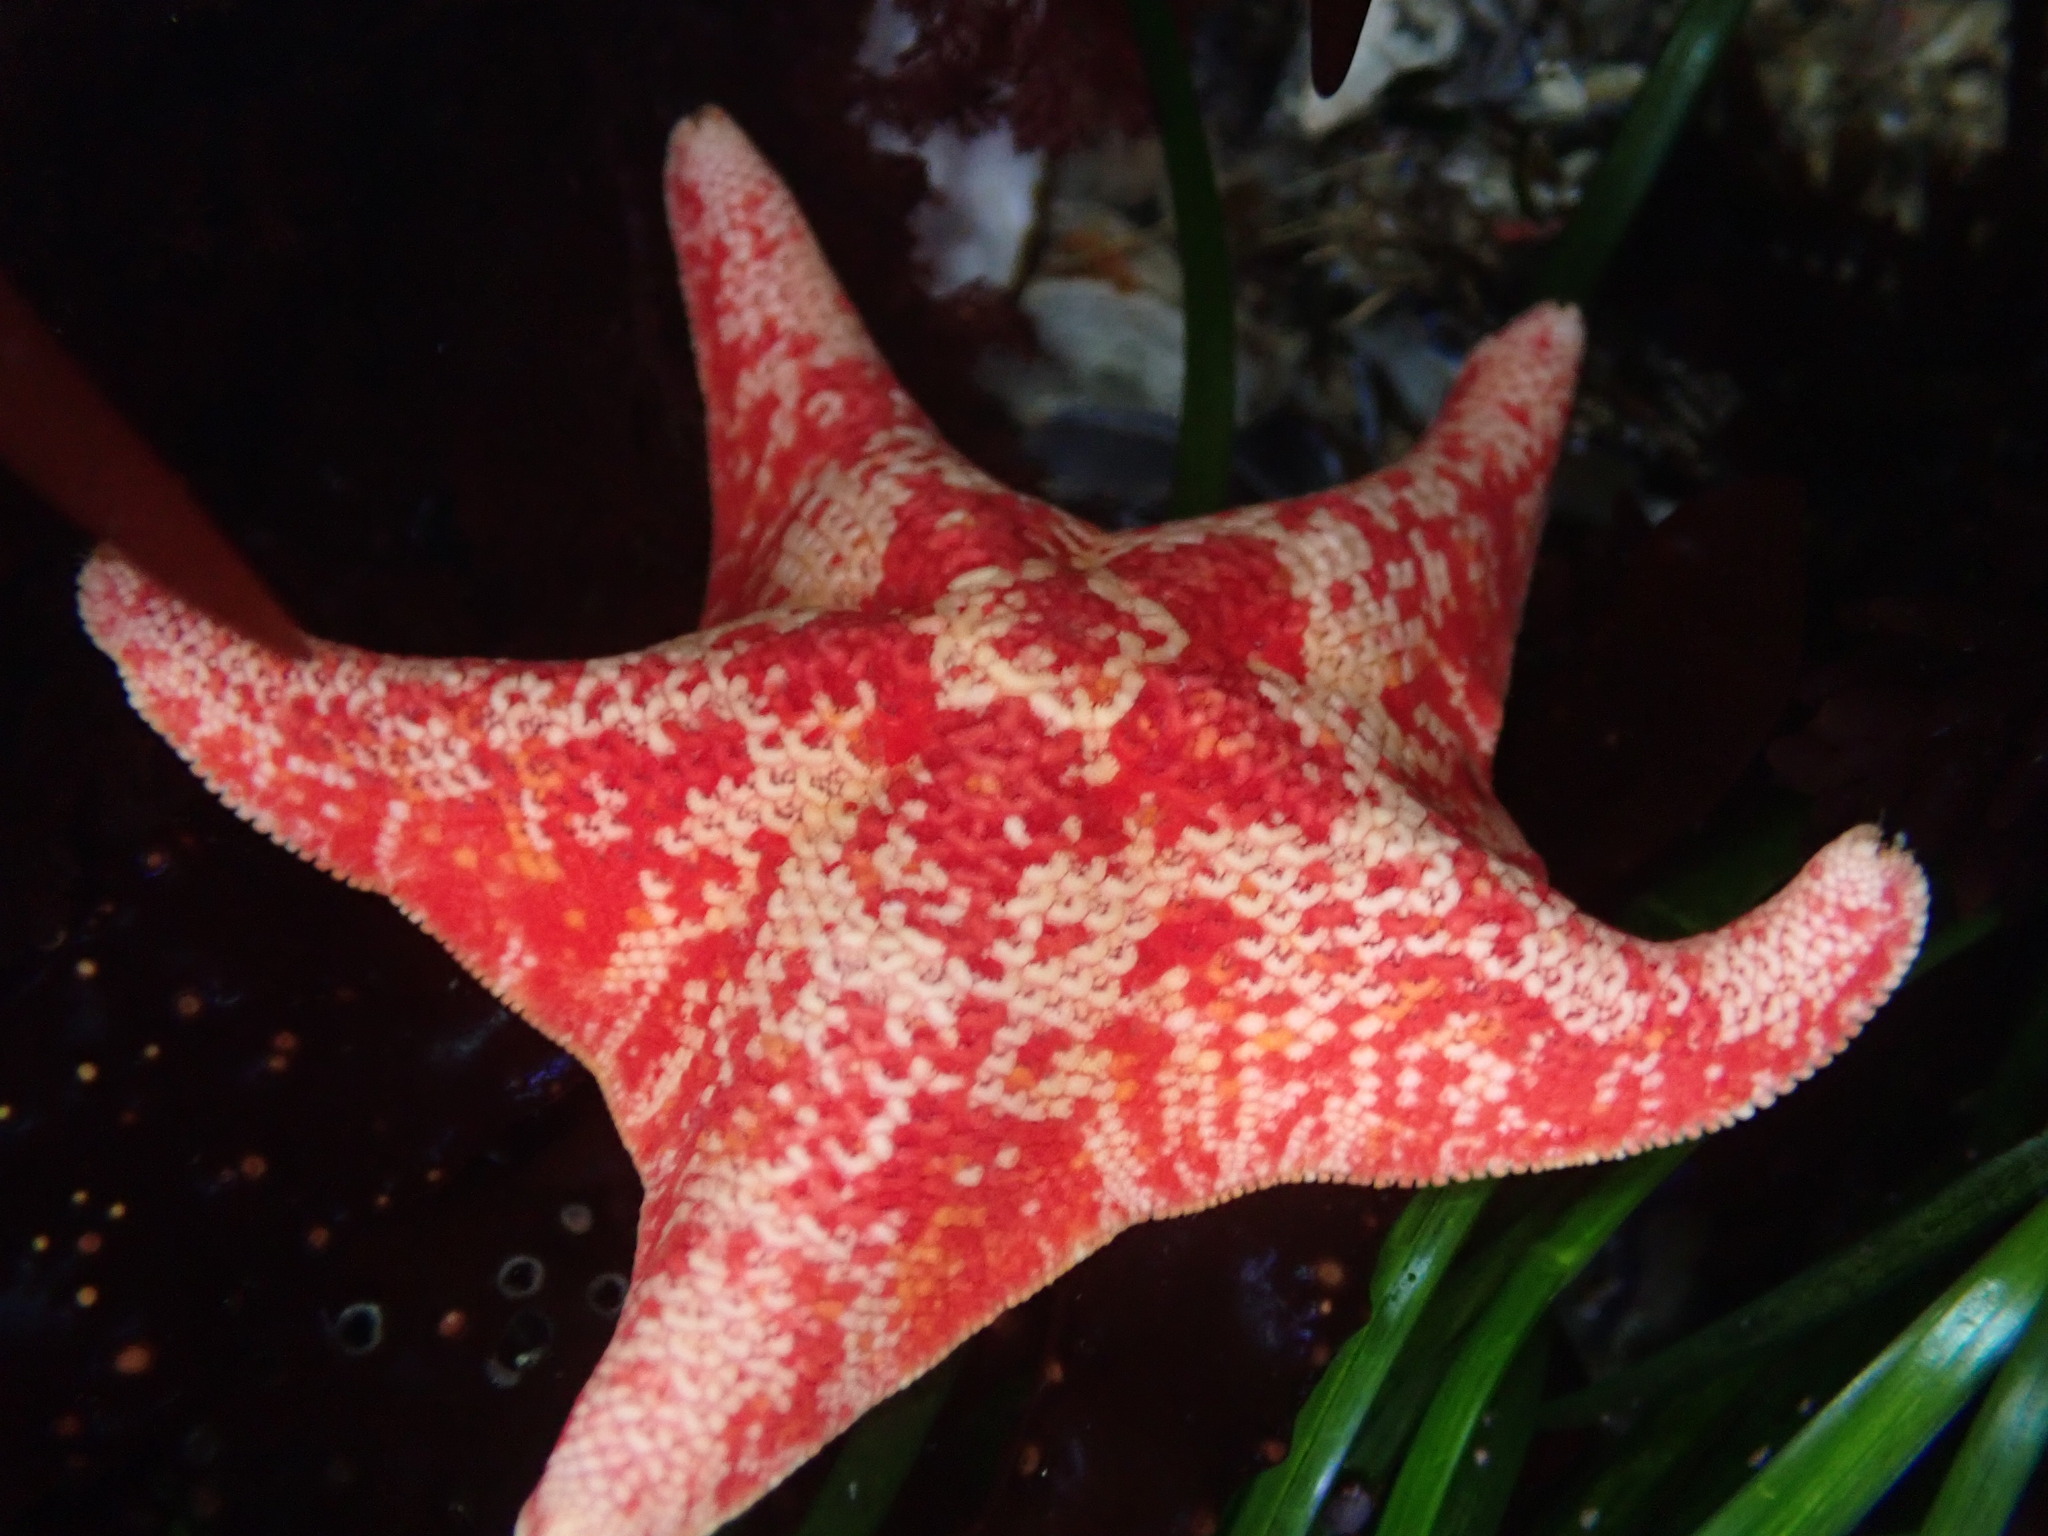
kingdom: Animalia
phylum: Echinodermata
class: Asteroidea
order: Valvatida
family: Asterinidae
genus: Patiria
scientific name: Patiria miniata
